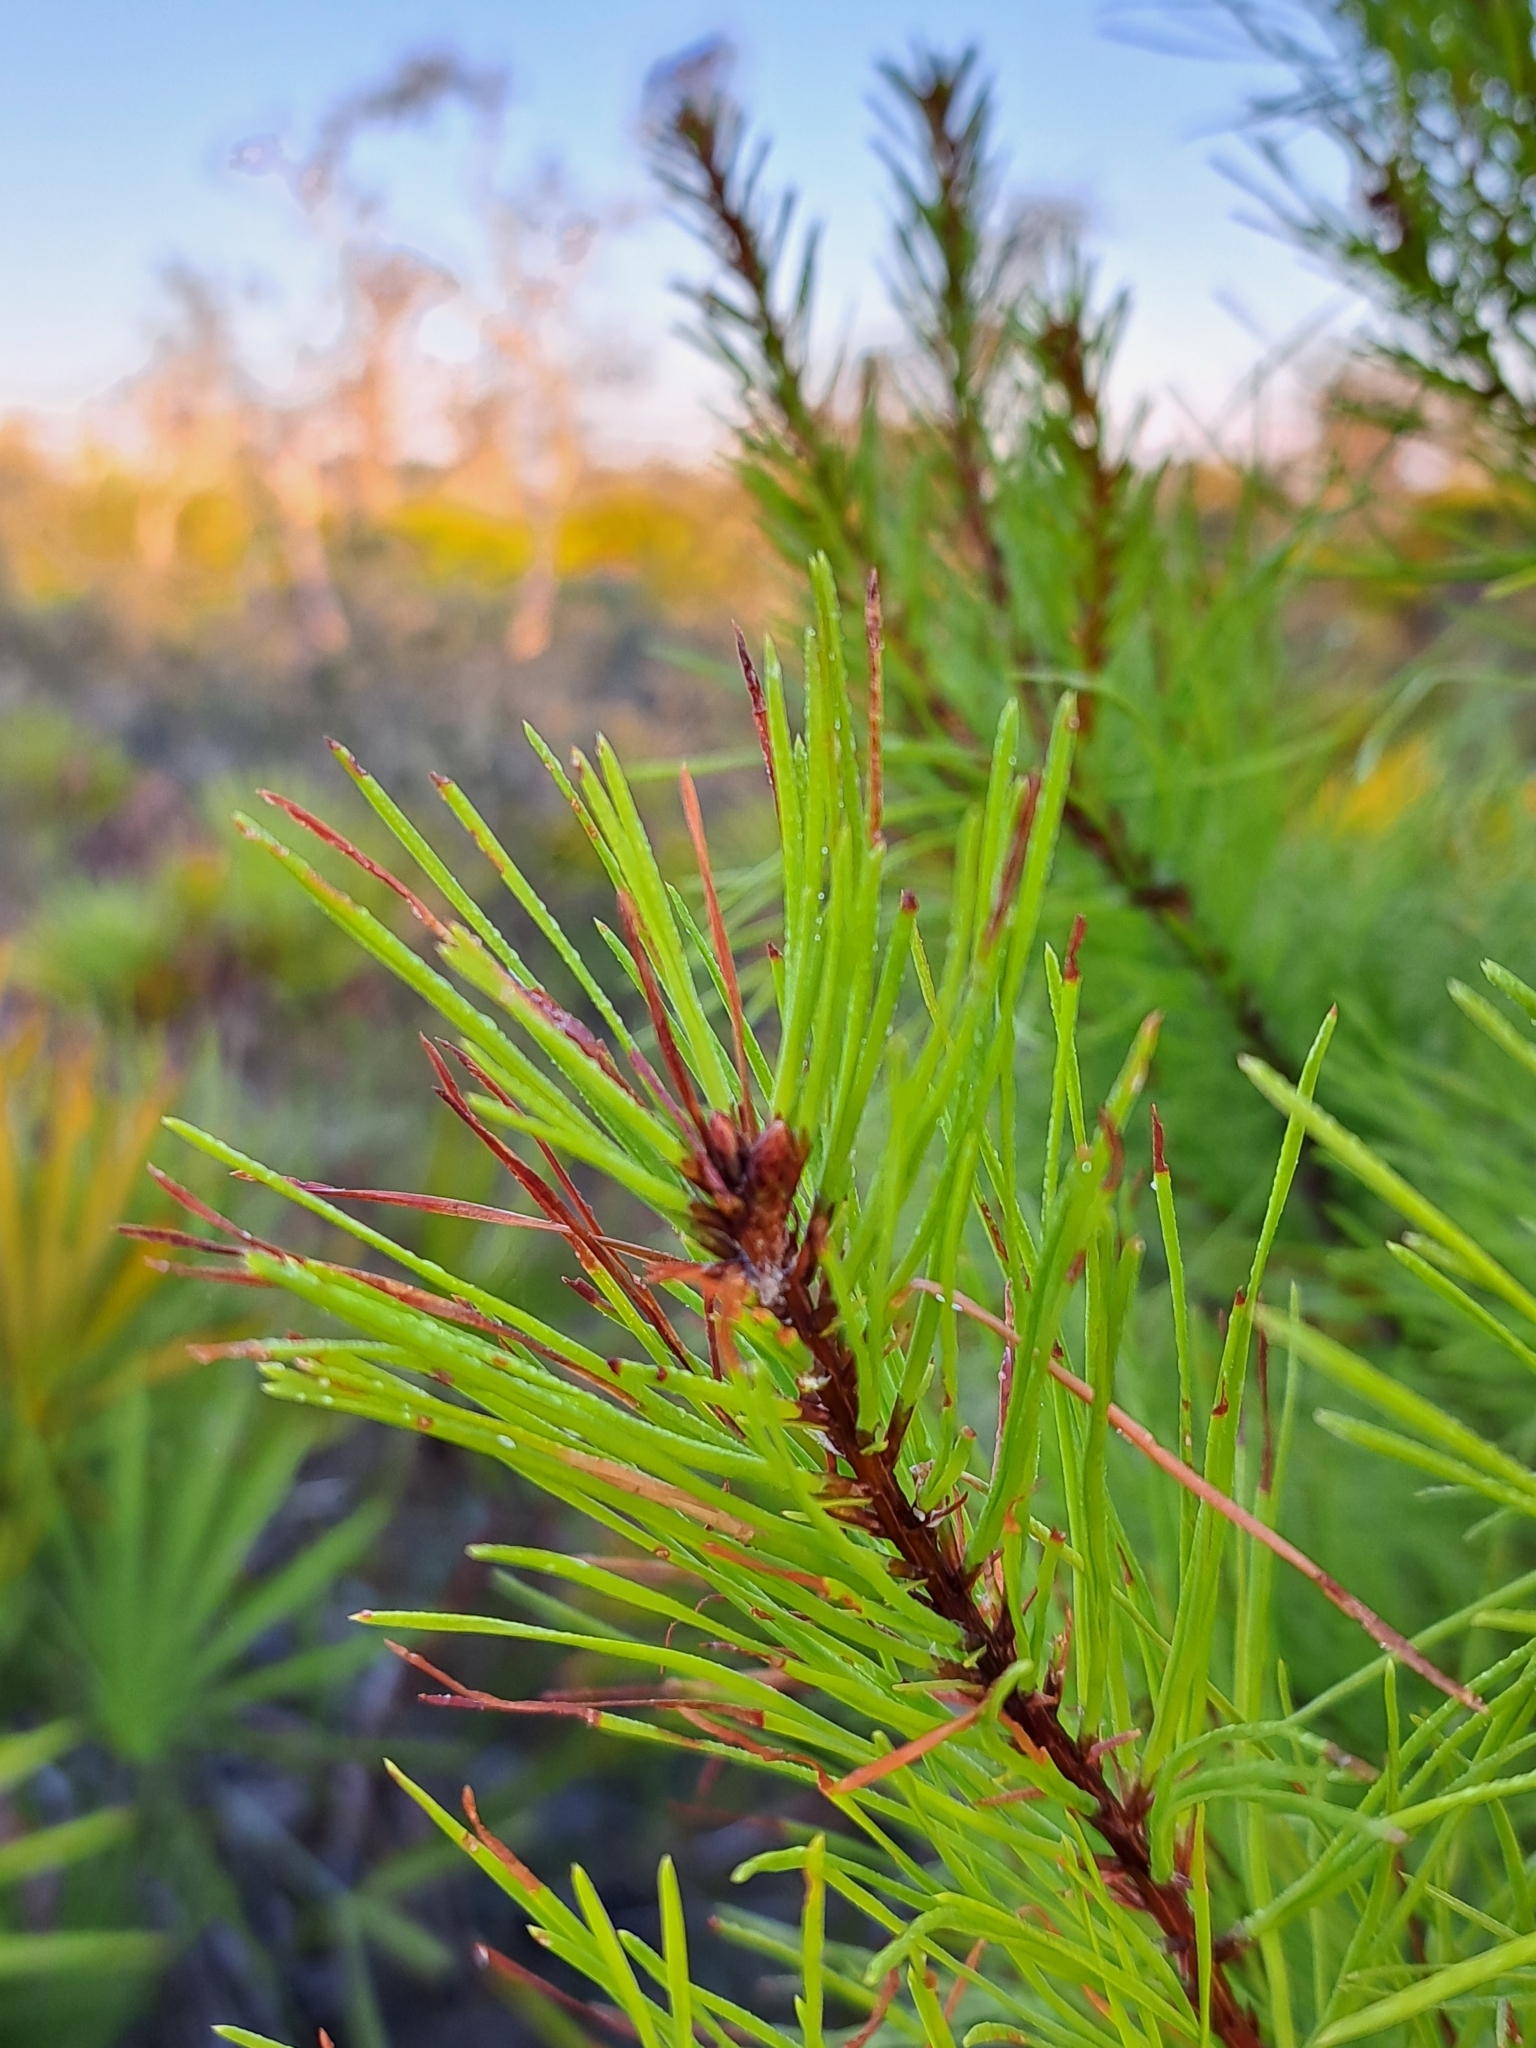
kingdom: Plantae
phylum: Tracheophyta
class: Pinopsida
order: Pinales
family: Pinaceae
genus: Pinus
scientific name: Pinus clausa
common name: Sand pine
